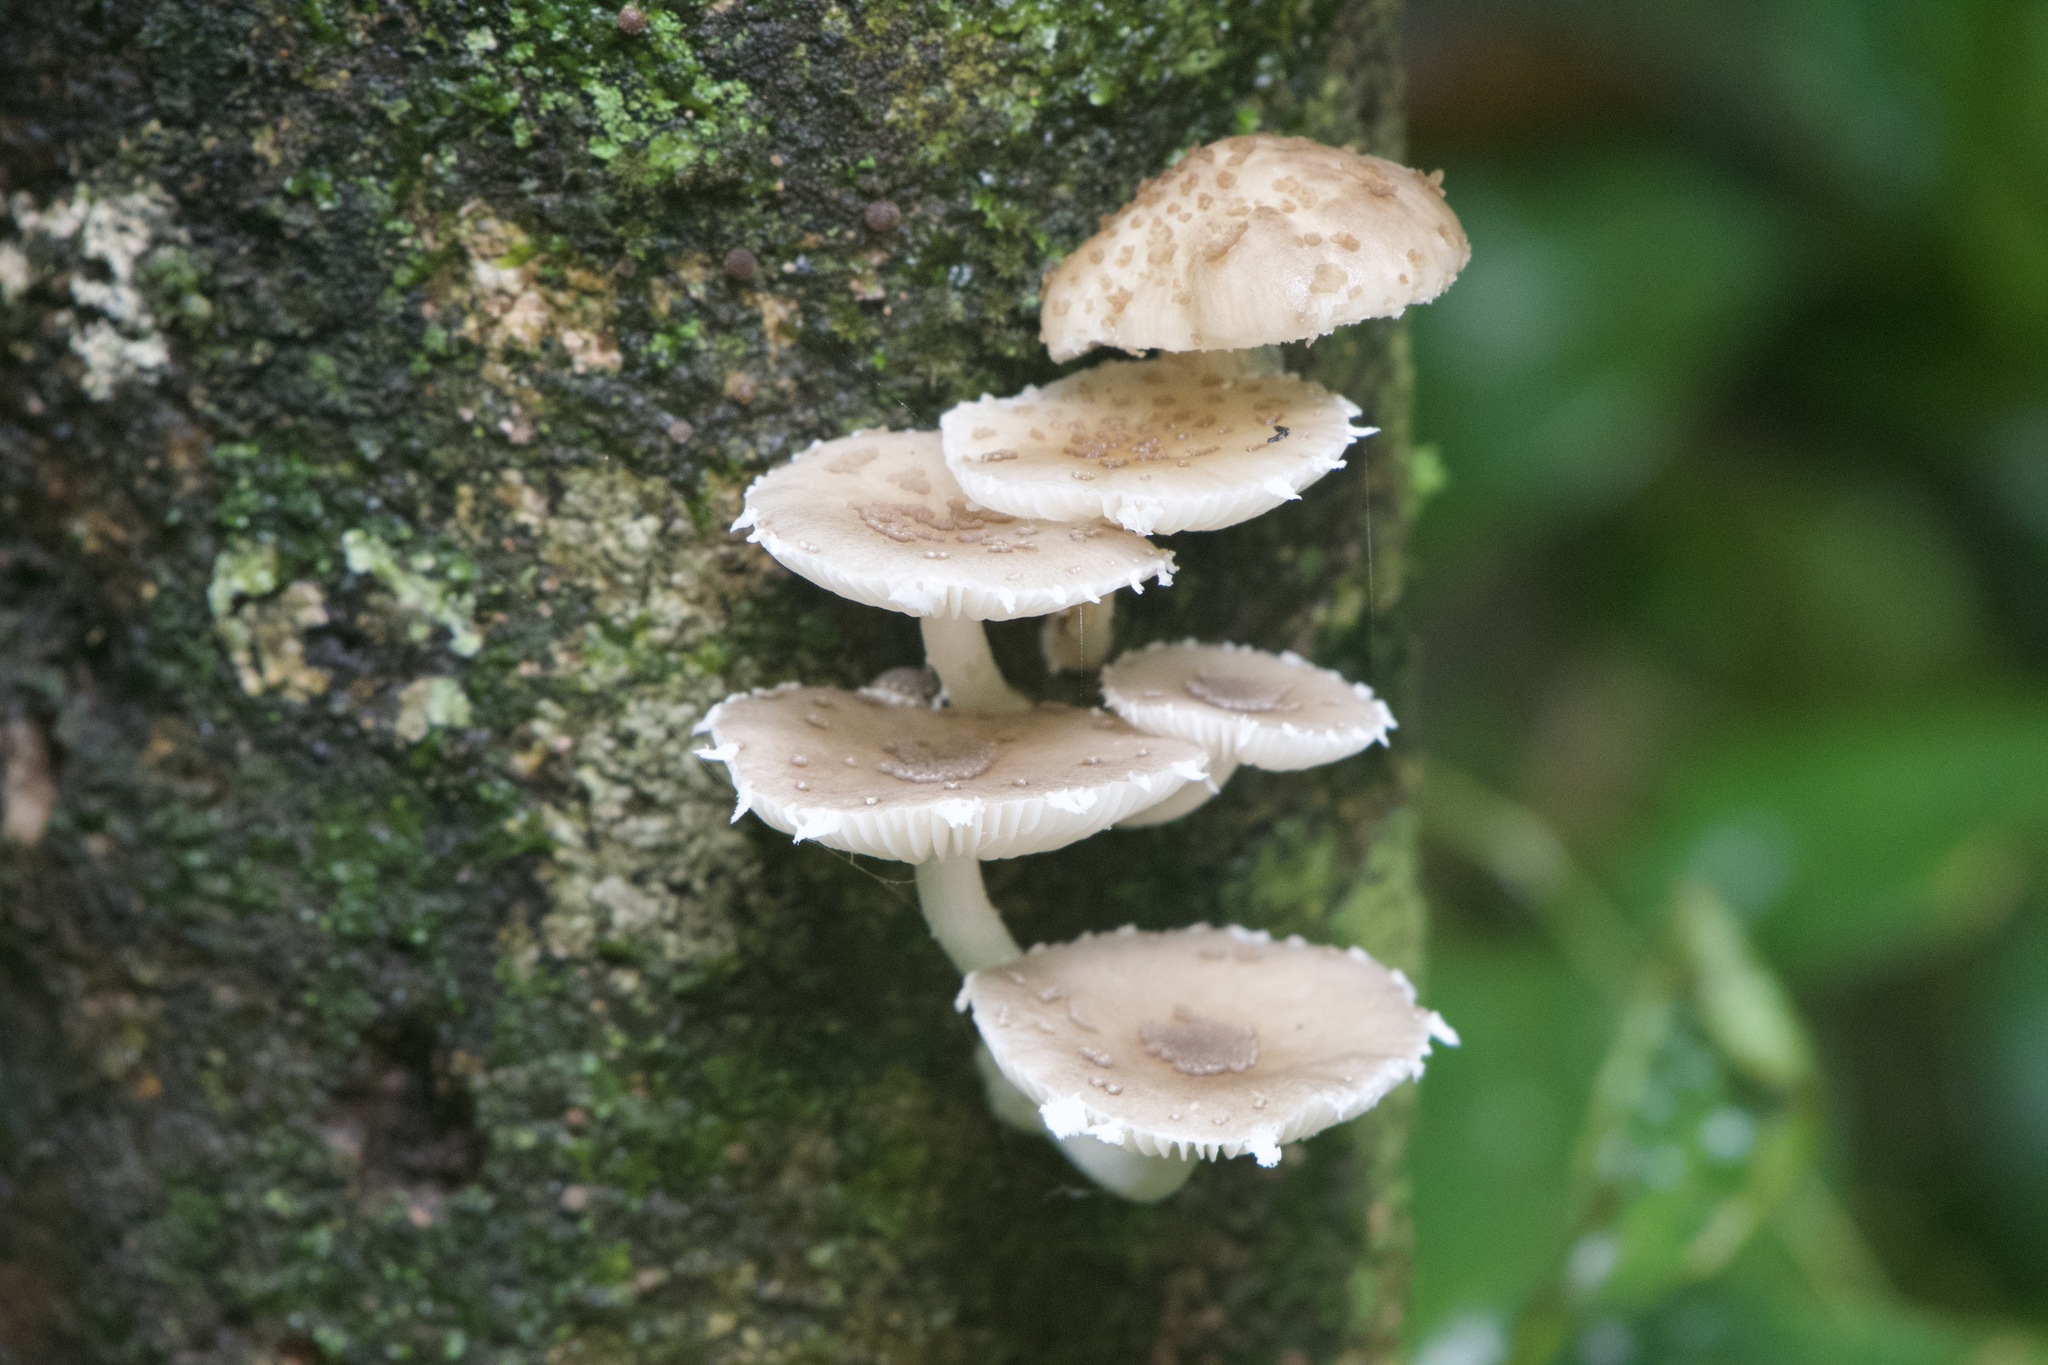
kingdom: Fungi
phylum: Basidiomycota
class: Agaricomycetes
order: Agaricales
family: Physalacriaceae
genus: Oudemansiella
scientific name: Oudemansiella canarii
